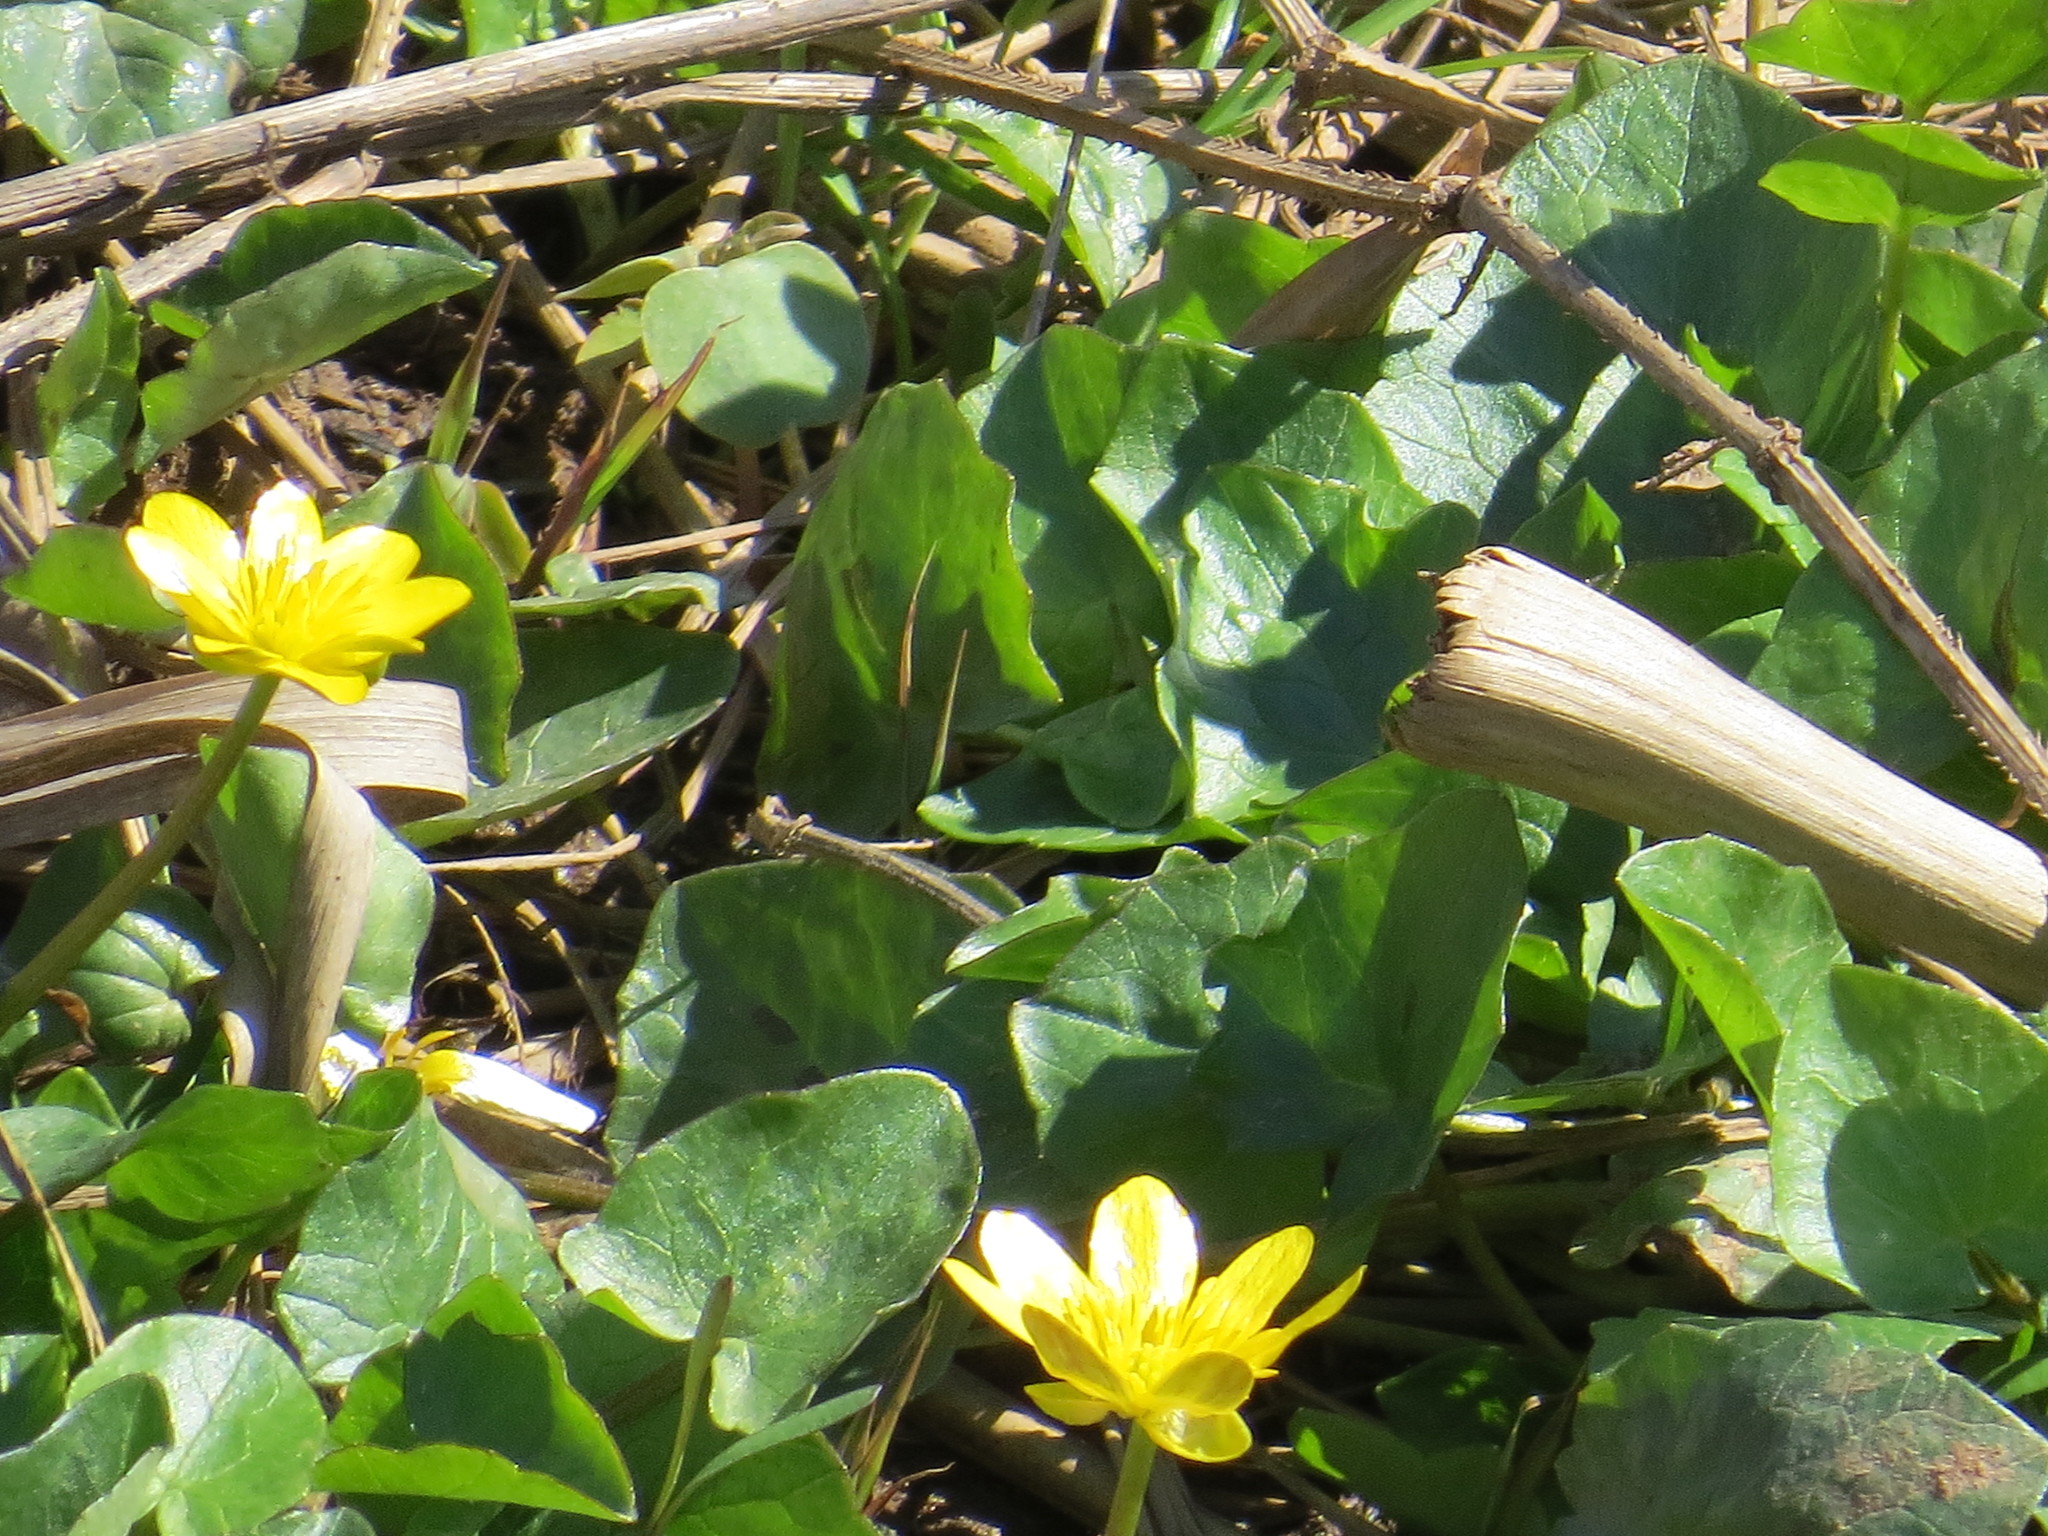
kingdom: Plantae
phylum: Tracheophyta
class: Magnoliopsida
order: Ranunculales
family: Ranunculaceae
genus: Ficaria
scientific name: Ficaria verna
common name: Lesser celandine
